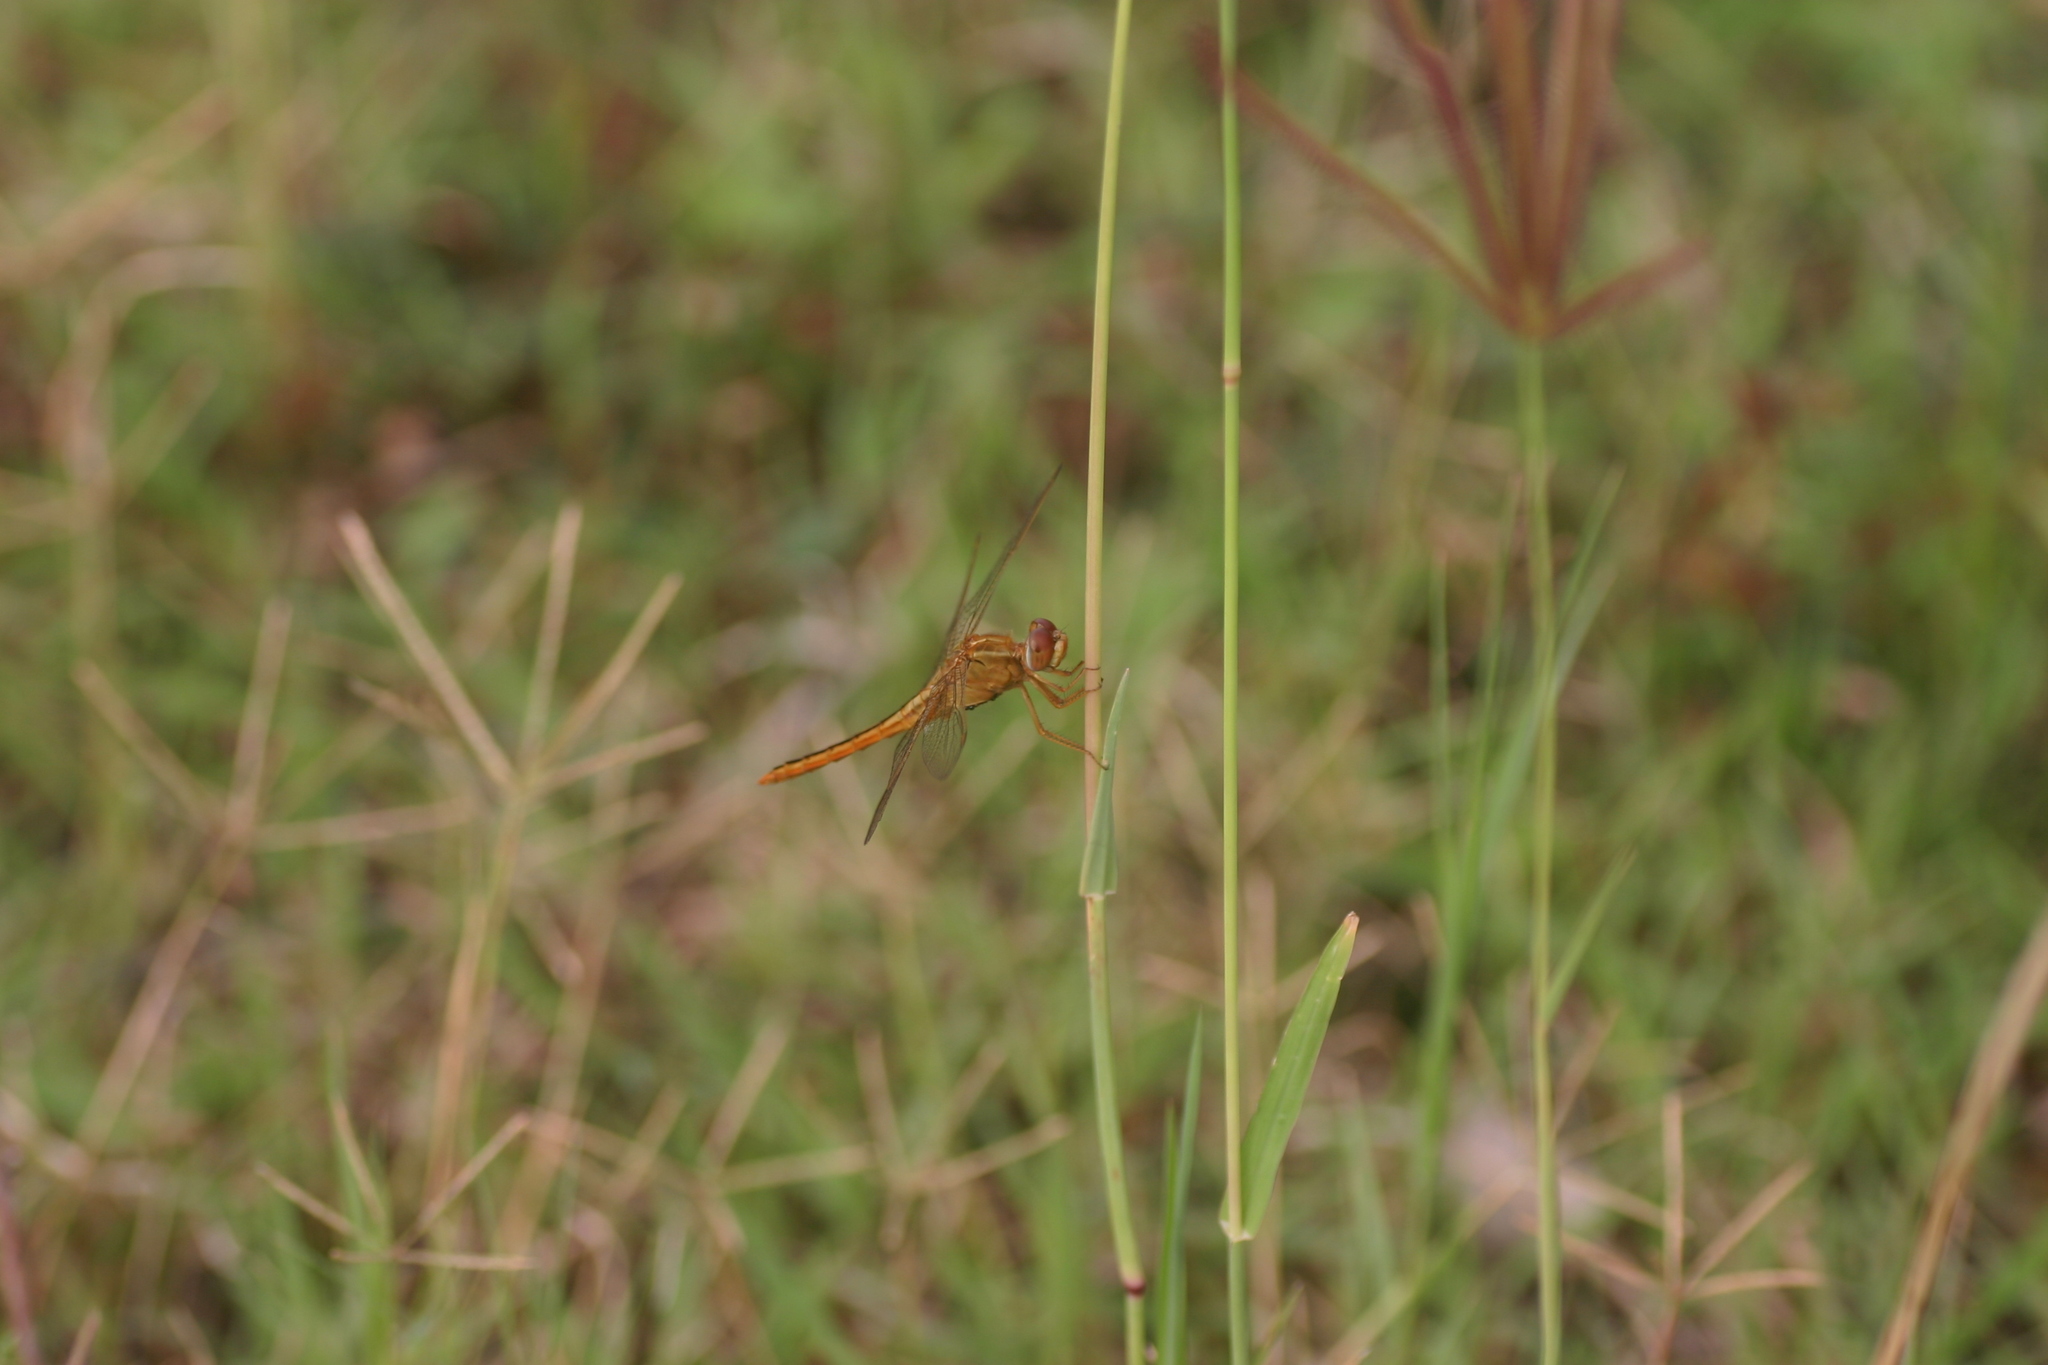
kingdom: Animalia
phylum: Arthropoda
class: Insecta
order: Odonata
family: Libellulidae
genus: Crocothemis
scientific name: Crocothemis servilia
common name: Scarlet skimmer
